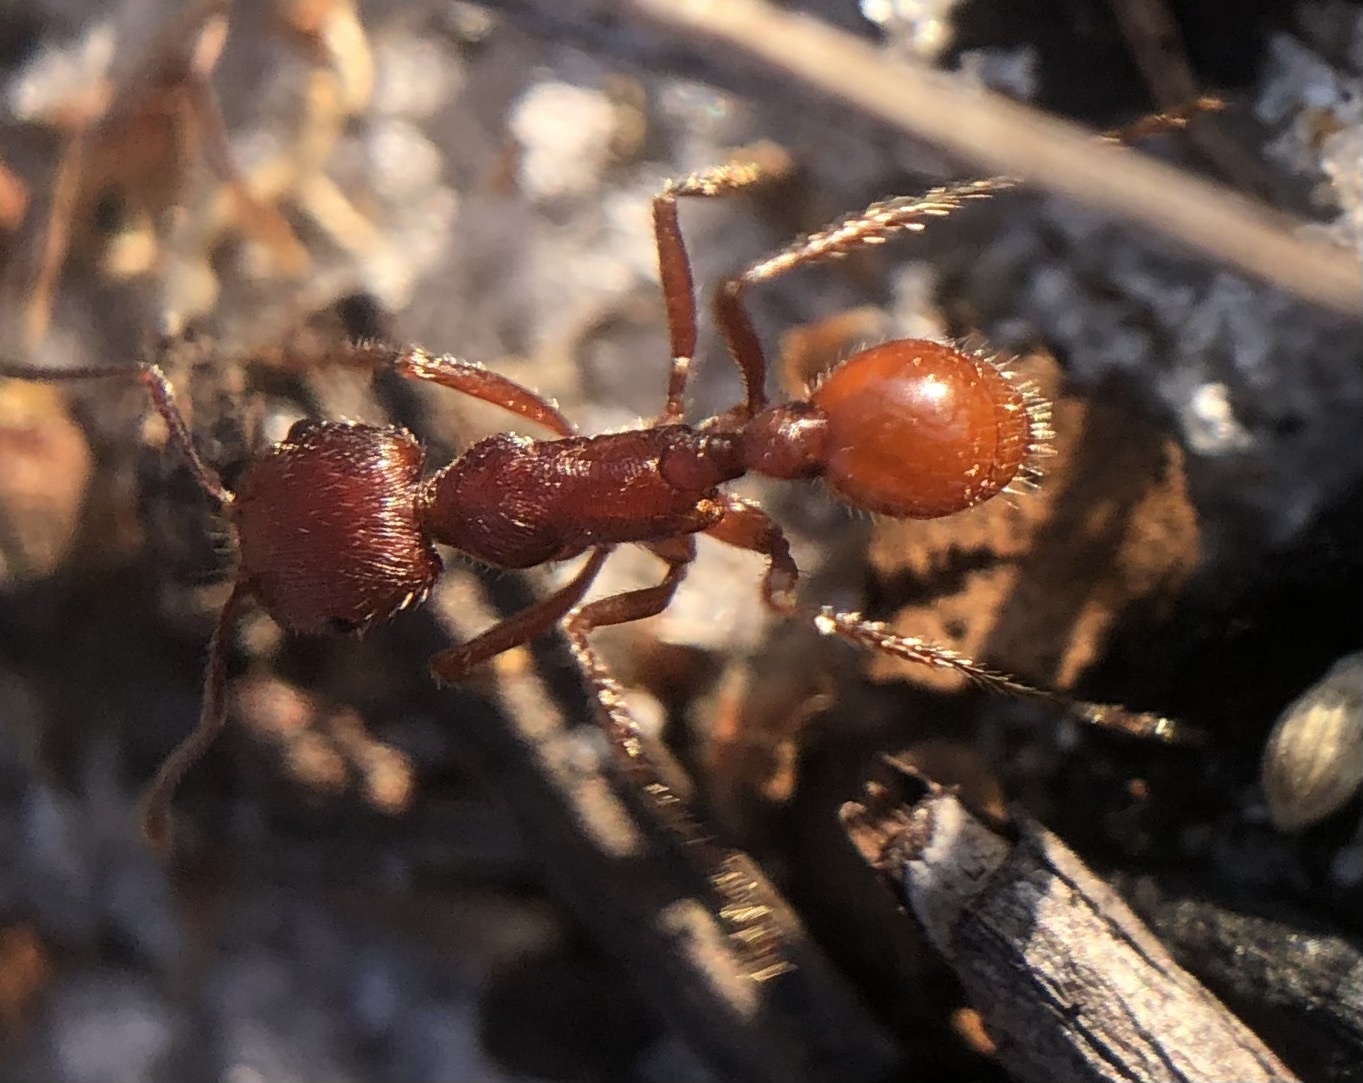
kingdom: Animalia
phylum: Arthropoda
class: Insecta
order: Hymenoptera
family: Formicidae
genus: Pogonomyrmex
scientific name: Pogonomyrmex badius
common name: Florida harvester ant
